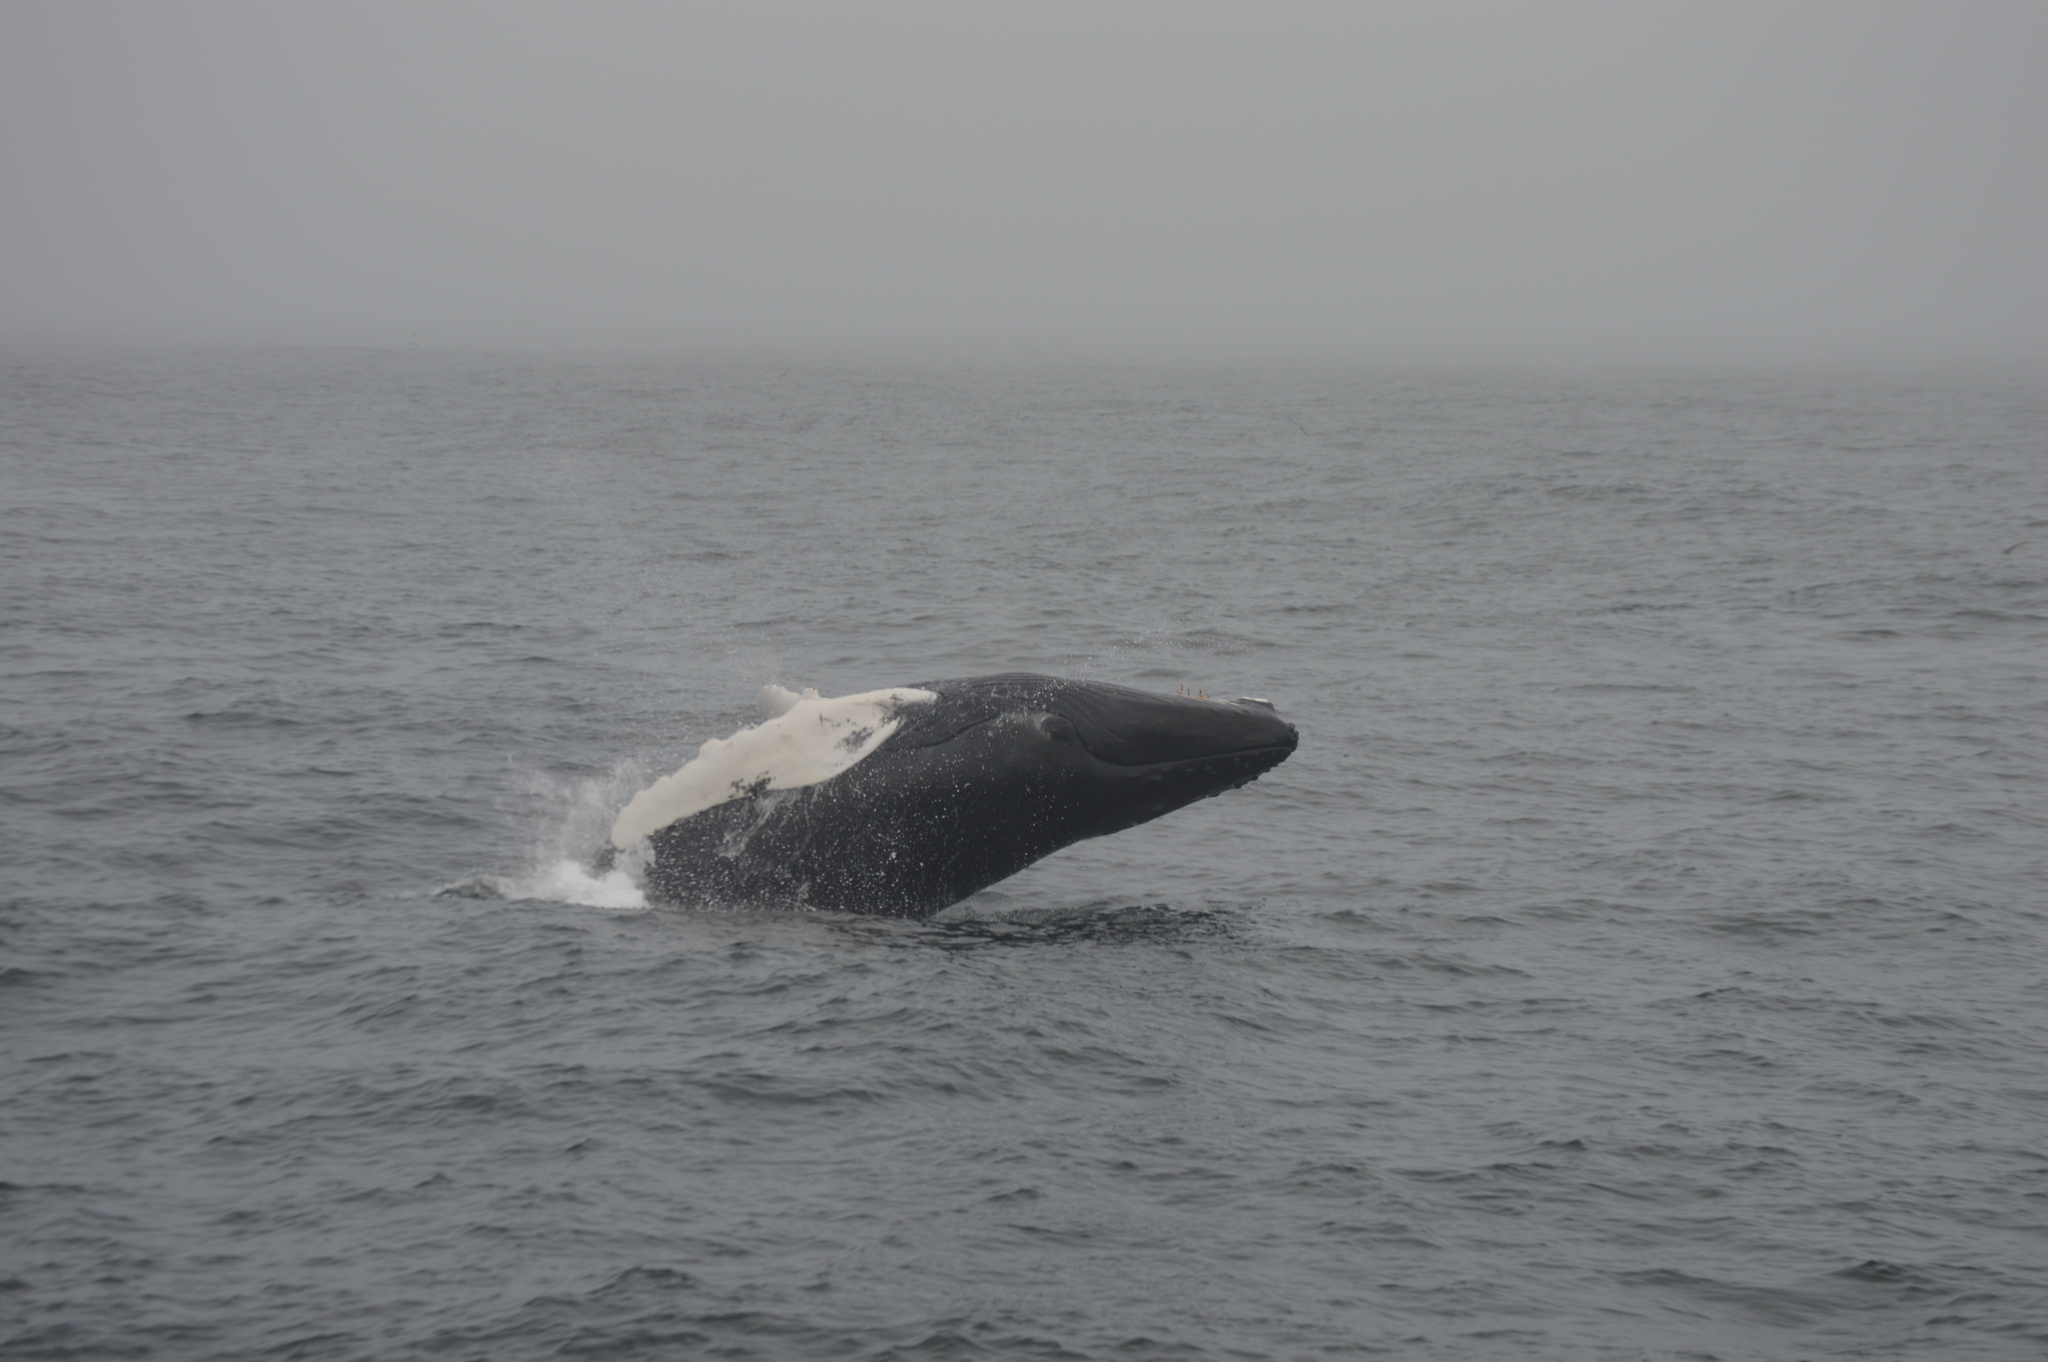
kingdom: Animalia
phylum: Chordata
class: Mammalia
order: Cetacea
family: Balaenopteridae
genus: Megaptera
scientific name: Megaptera novaeangliae
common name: Humpback whale
